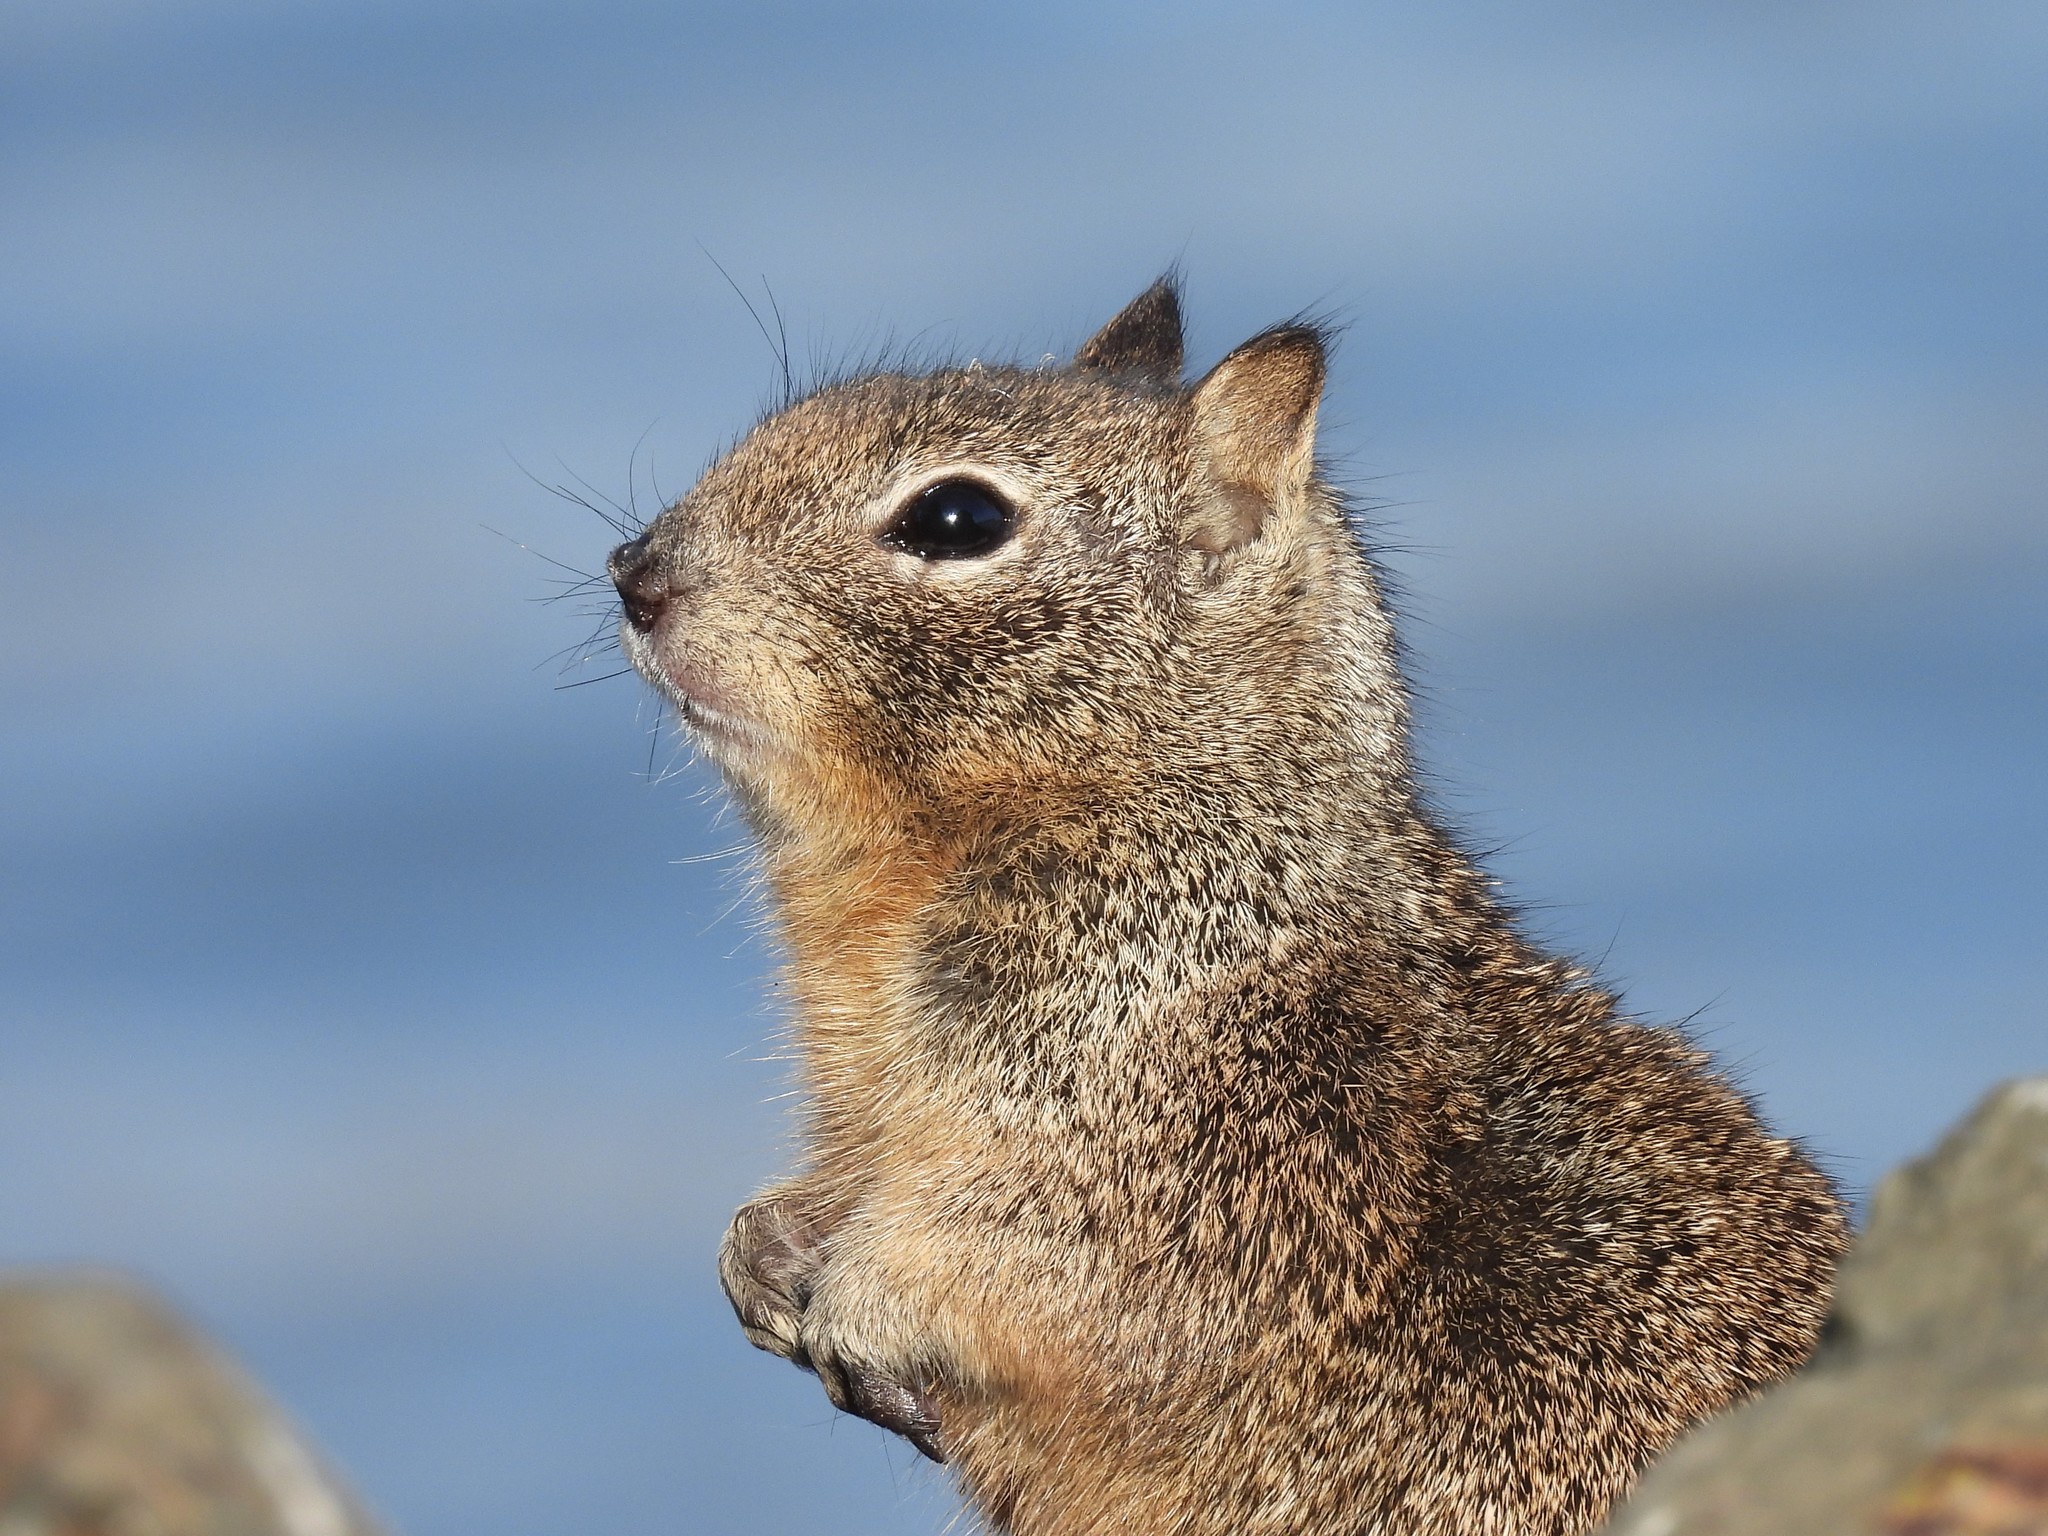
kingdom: Animalia
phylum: Chordata
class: Mammalia
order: Rodentia
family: Sciuridae
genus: Otospermophilus
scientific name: Otospermophilus beecheyi
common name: California ground squirrel
